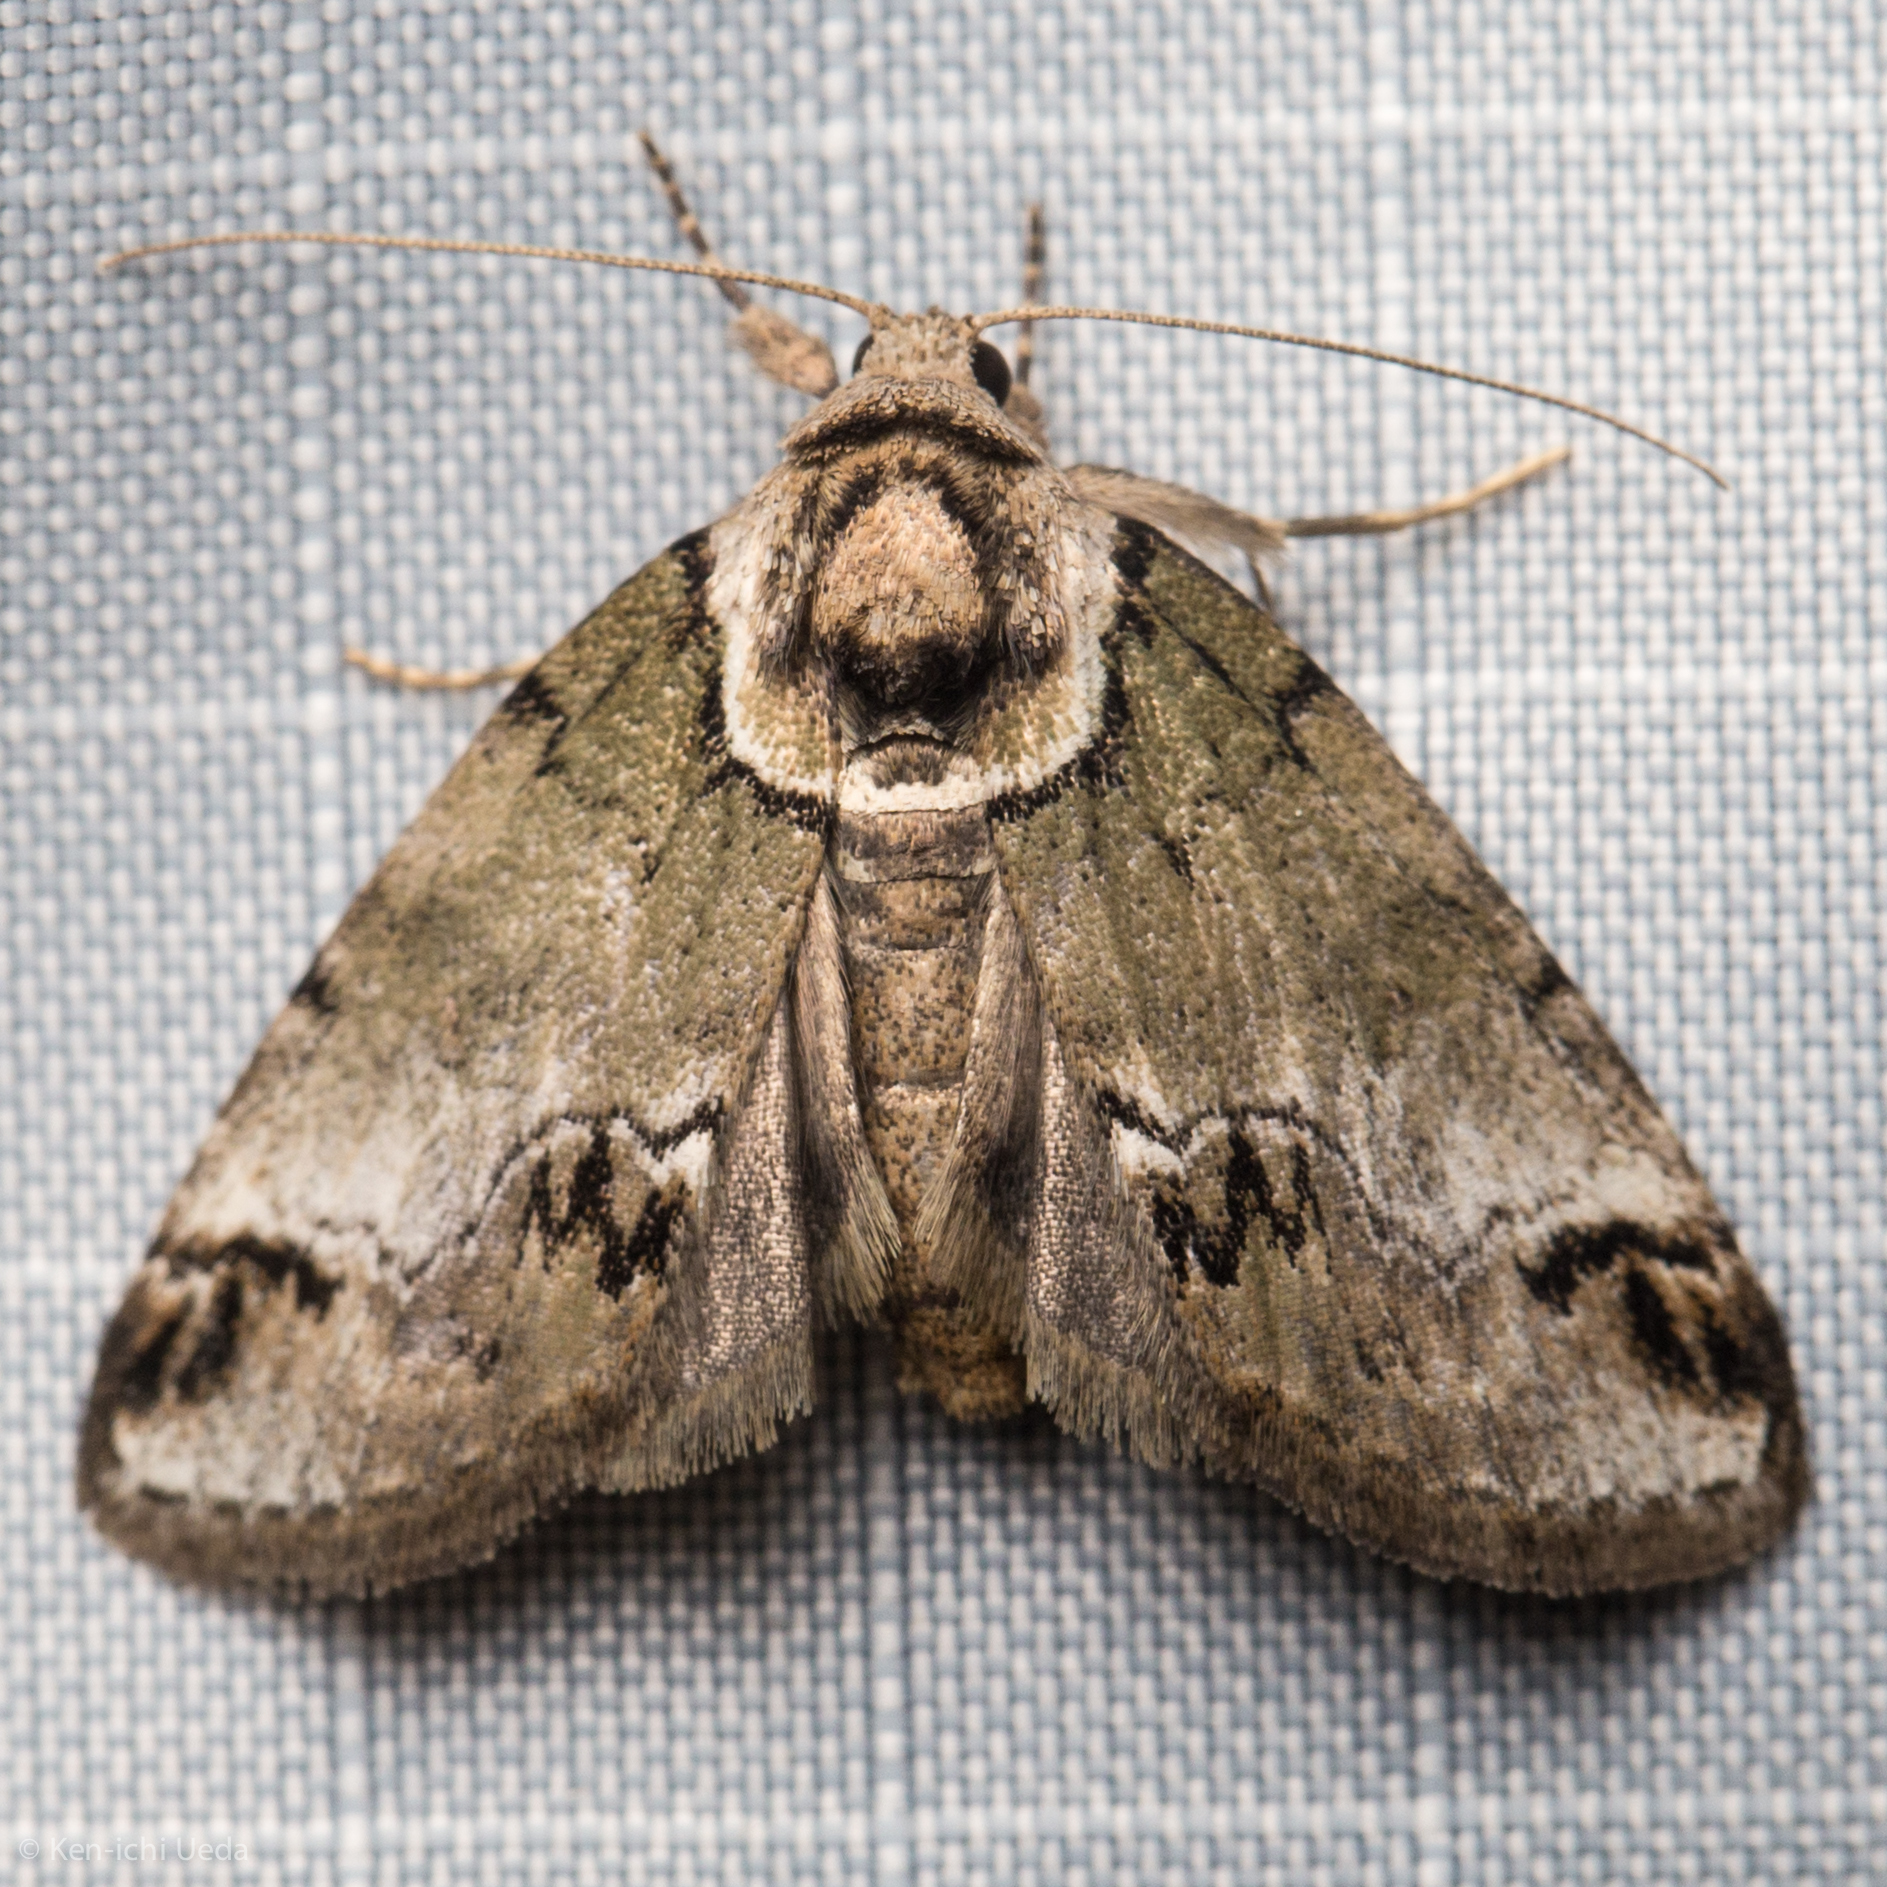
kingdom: Animalia
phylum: Arthropoda
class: Insecta
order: Lepidoptera
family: Nolidae
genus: Baileya
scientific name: Baileya australis
